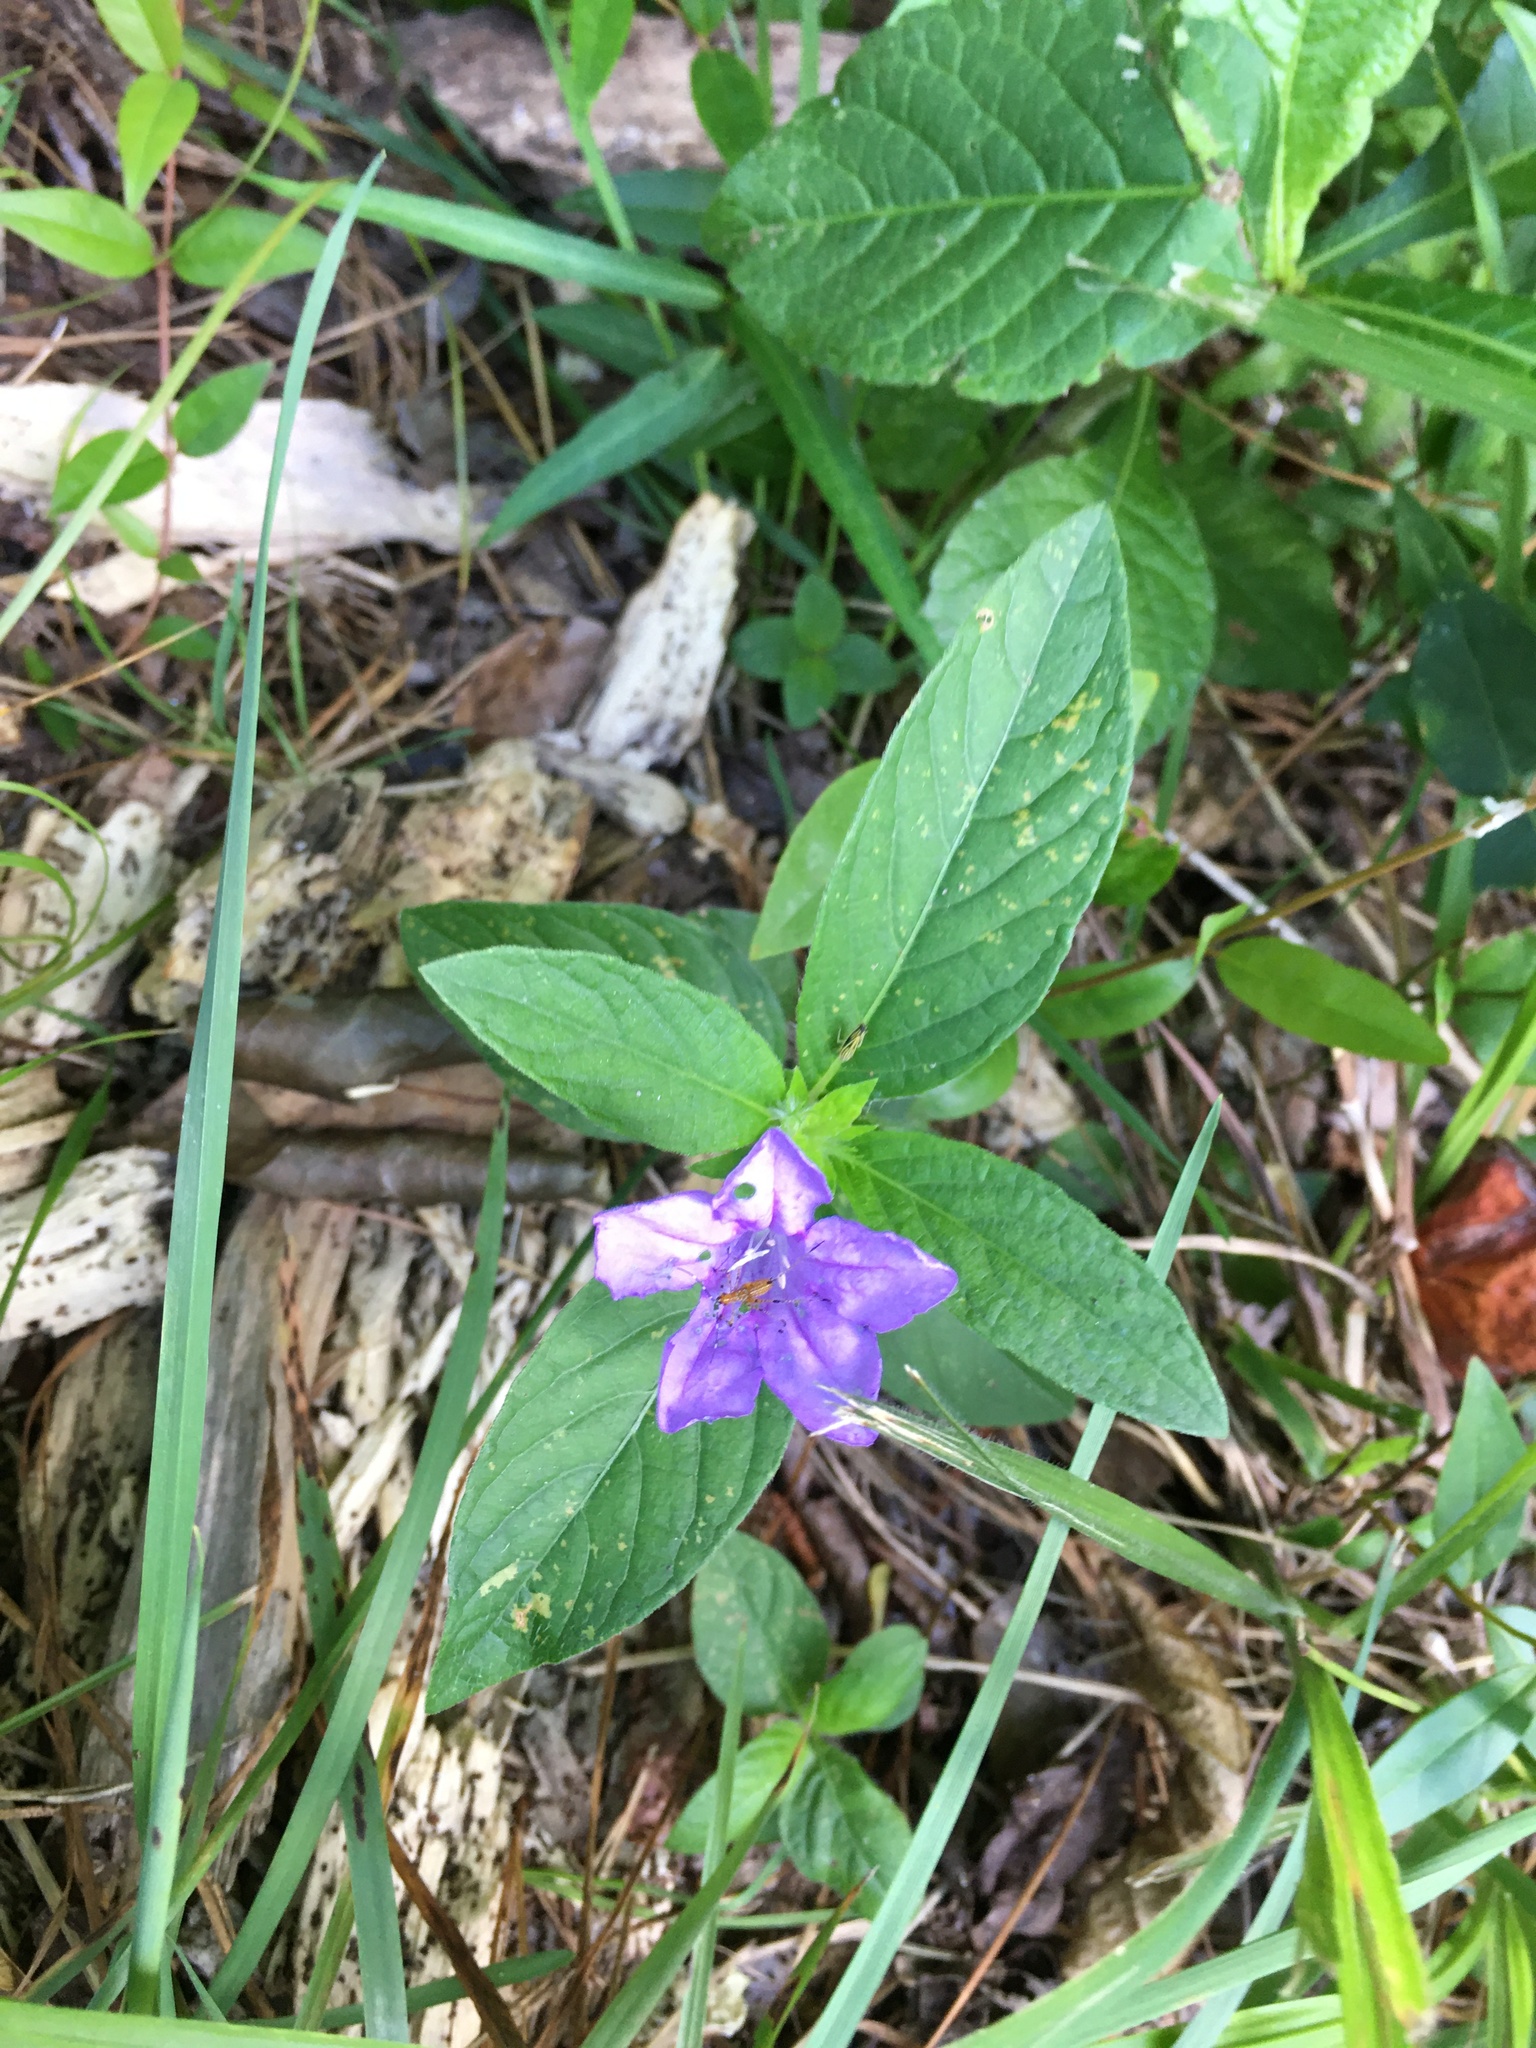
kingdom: Plantae
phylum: Tracheophyta
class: Magnoliopsida
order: Lamiales
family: Acanthaceae
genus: Ruellia
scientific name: Ruellia caroliniensis
